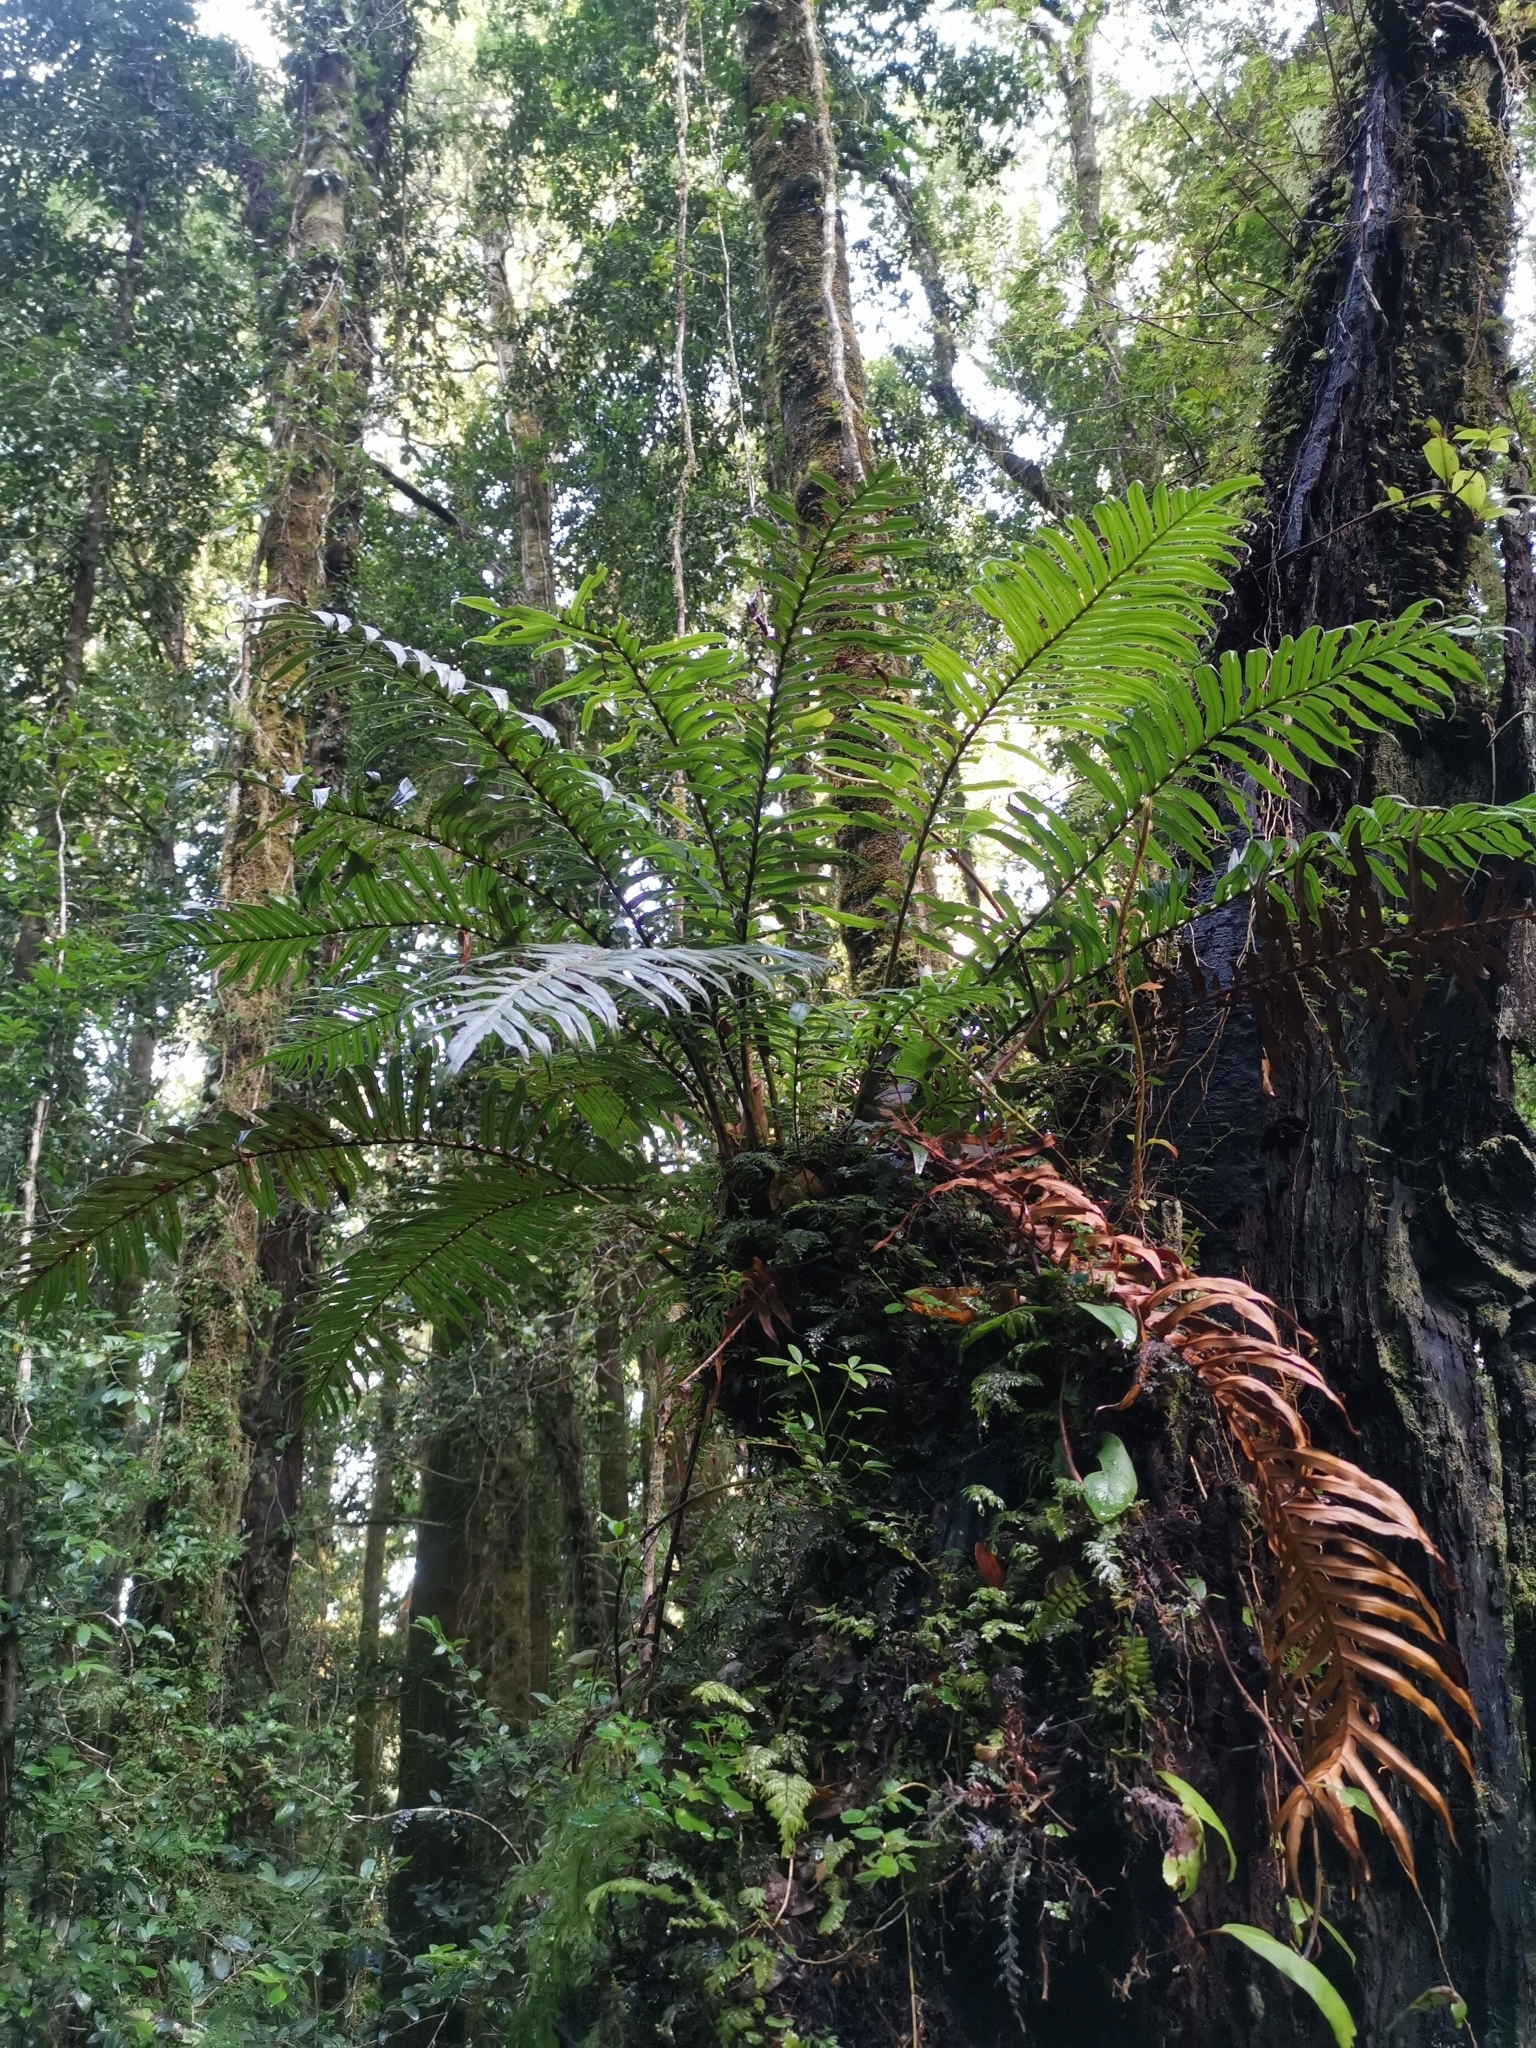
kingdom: Plantae
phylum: Tracheophyta
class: Polypodiopsida
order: Polypodiales
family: Blechnaceae
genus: Lomariocycas
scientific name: Lomariocycas magellanica
